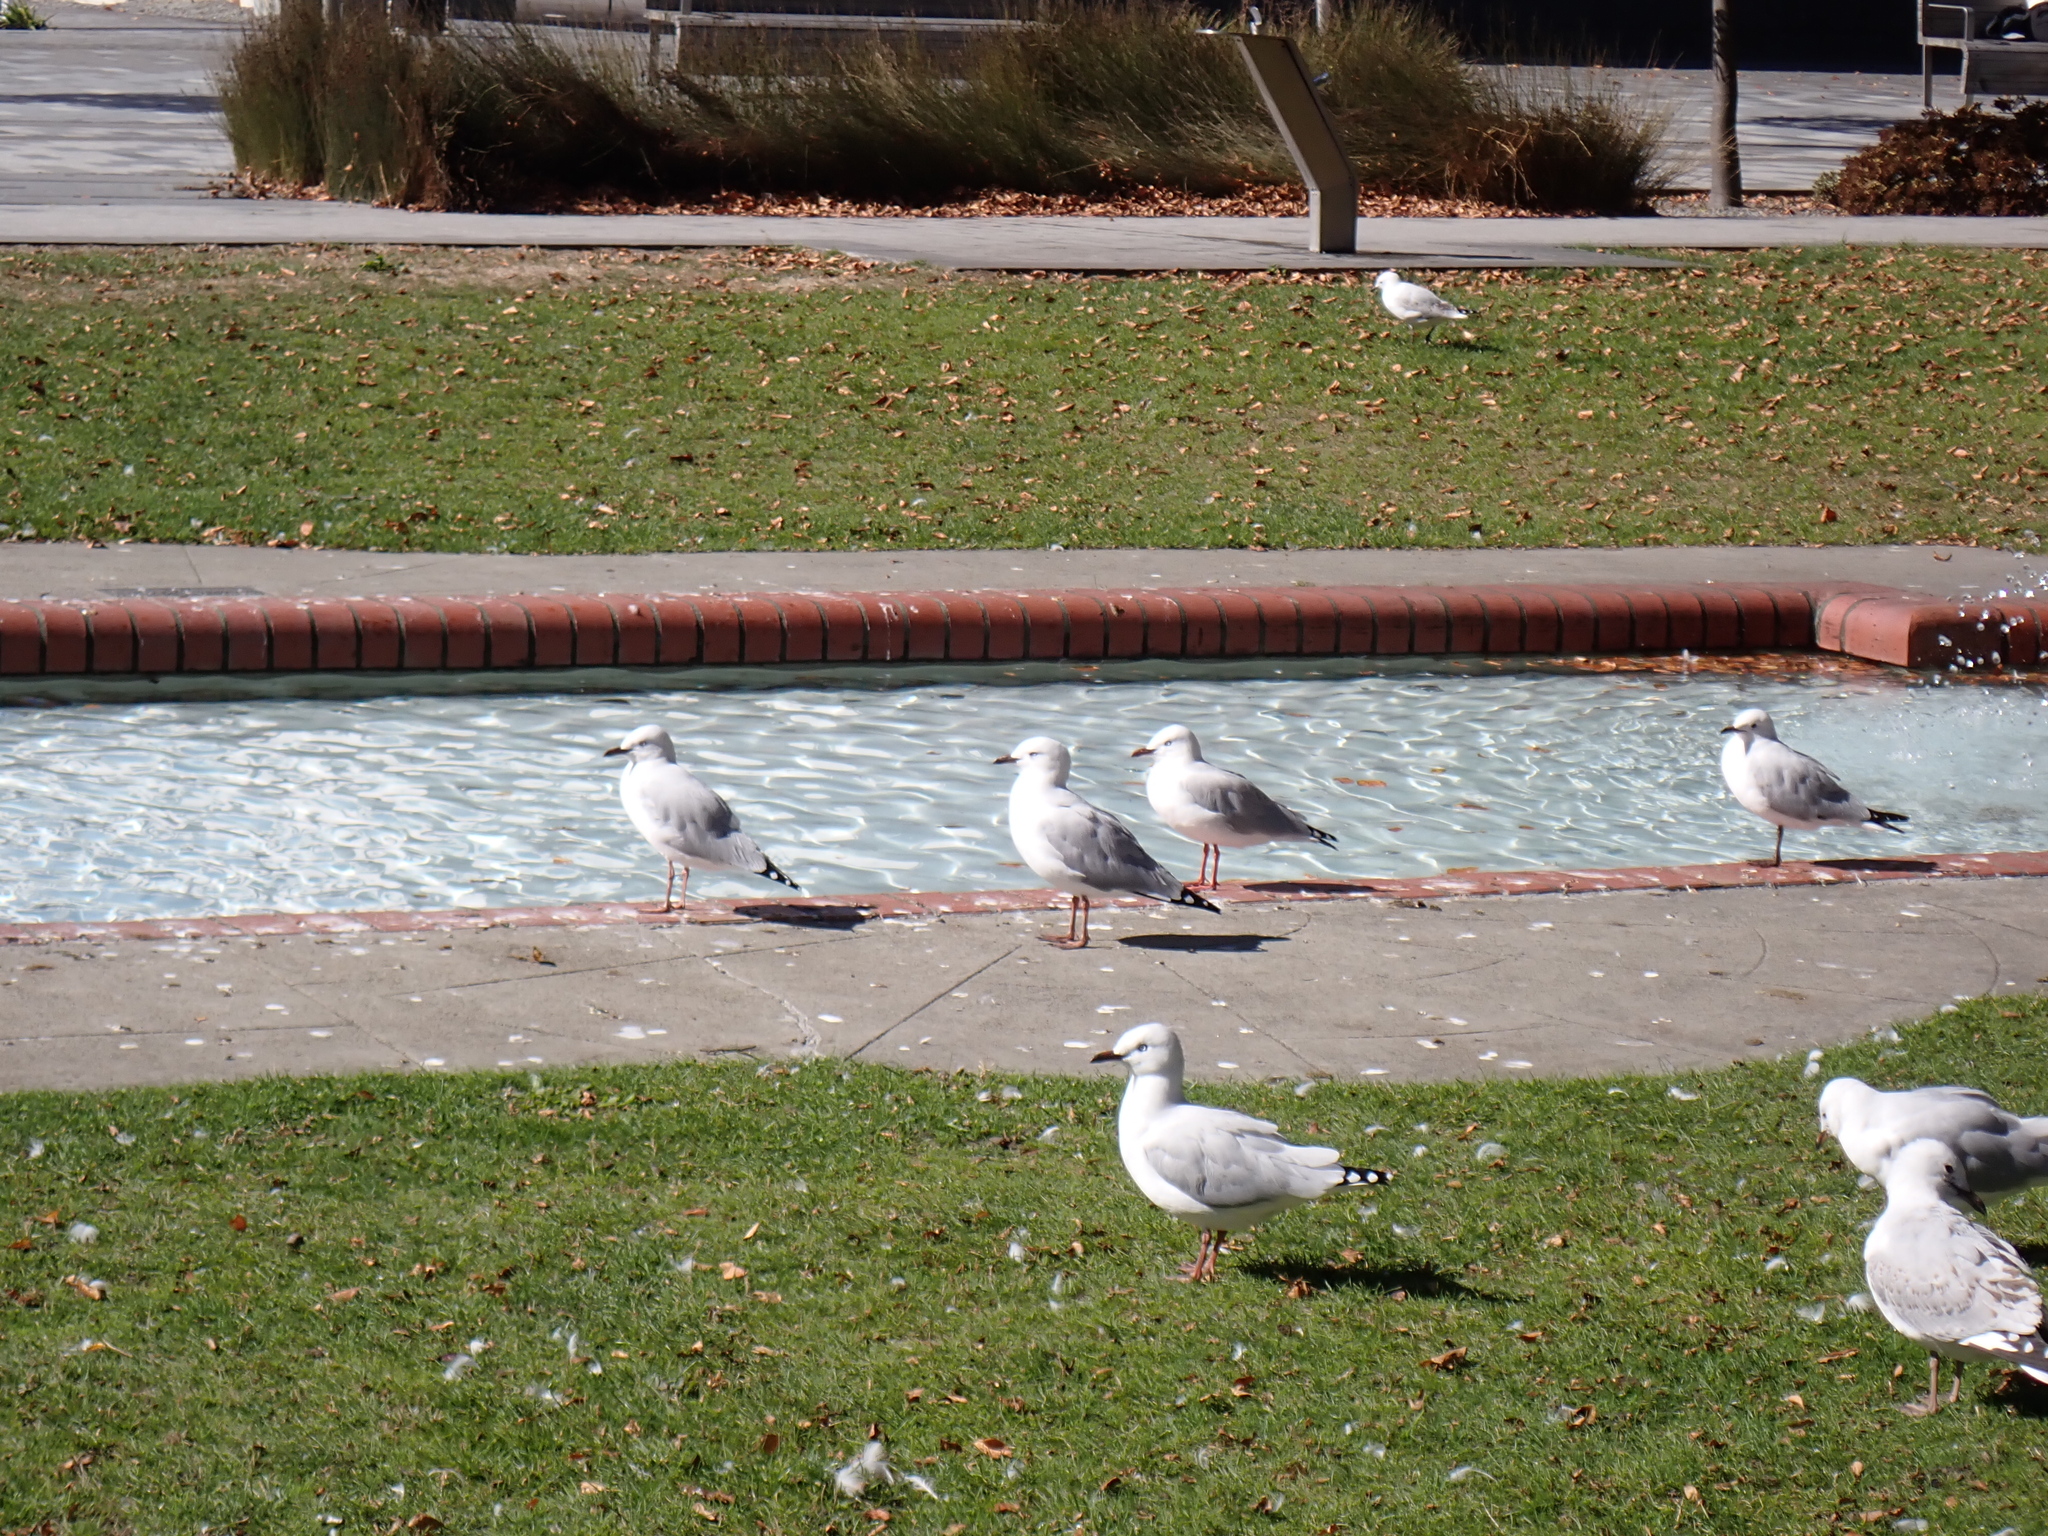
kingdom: Animalia
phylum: Chordata
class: Aves
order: Charadriiformes
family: Laridae
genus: Chroicocephalus
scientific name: Chroicocephalus novaehollandiae
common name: Silver gull
